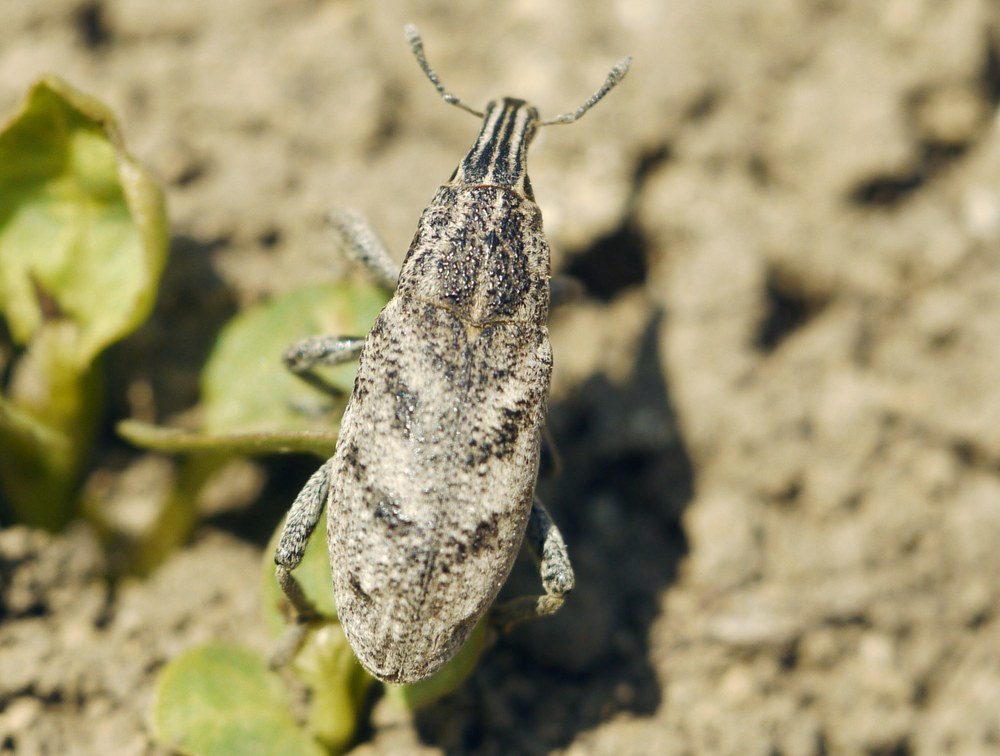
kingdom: Animalia
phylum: Arthropoda
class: Insecta
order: Coleoptera
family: Curculionidae
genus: Cleonis
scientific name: Cleonis pigra
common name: Large thistle weevil
